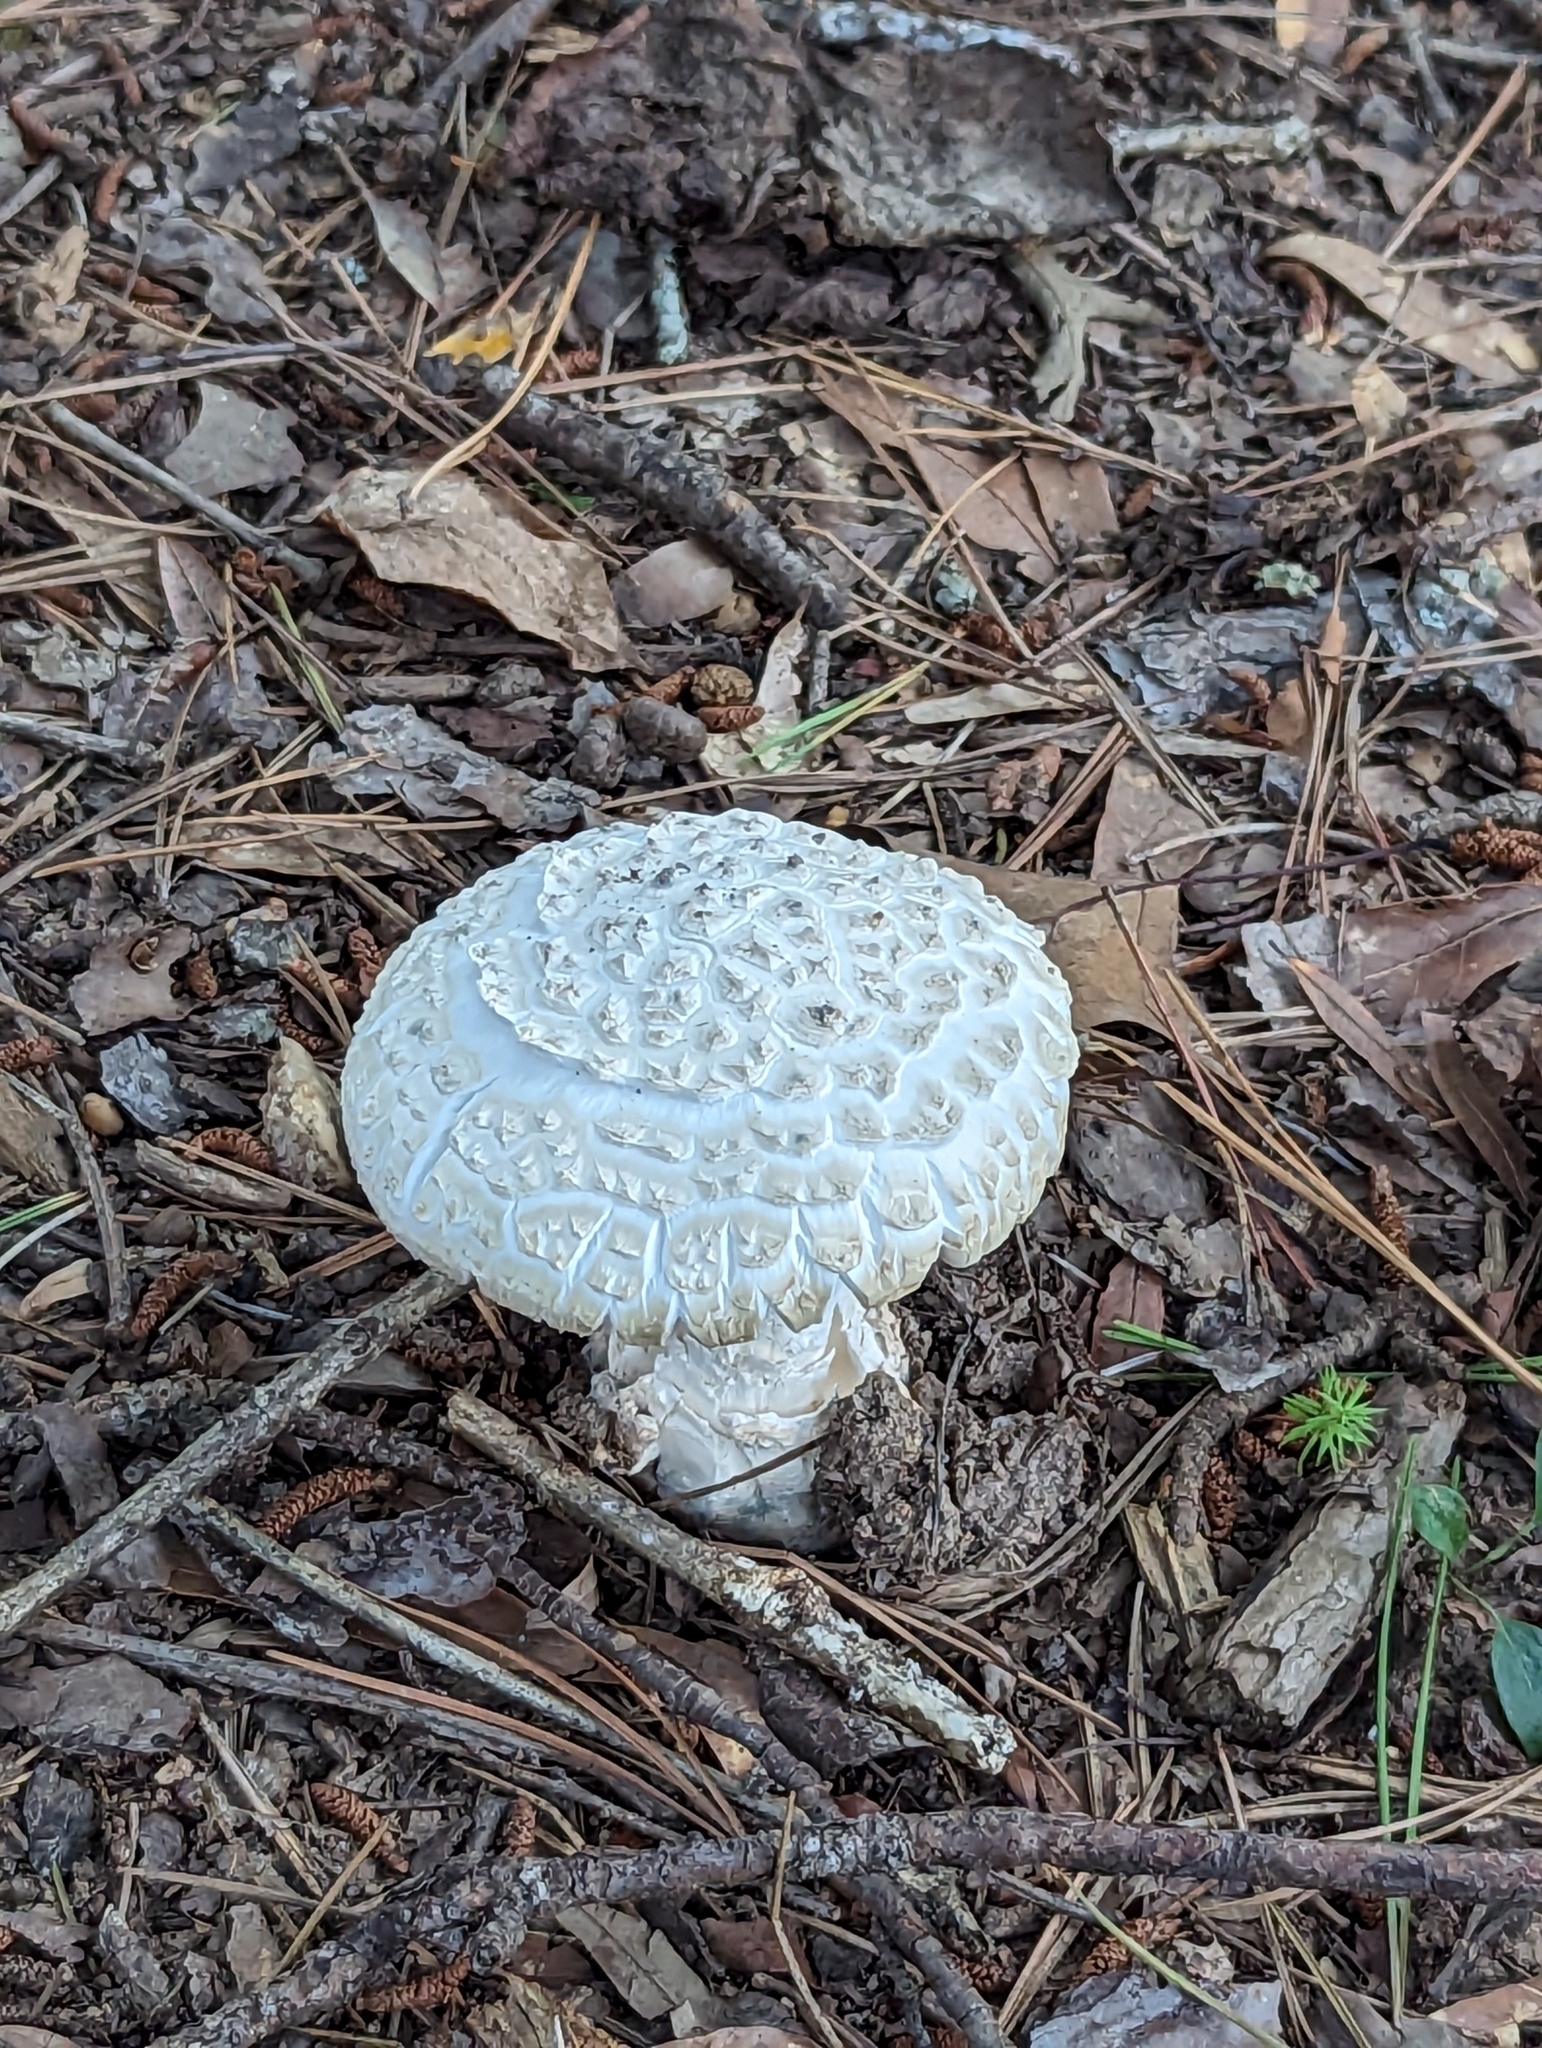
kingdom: Fungi
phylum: Basidiomycota
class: Agaricomycetes
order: Agaricales
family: Amanitaceae
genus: Amanita
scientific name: Amanita ravenelii
